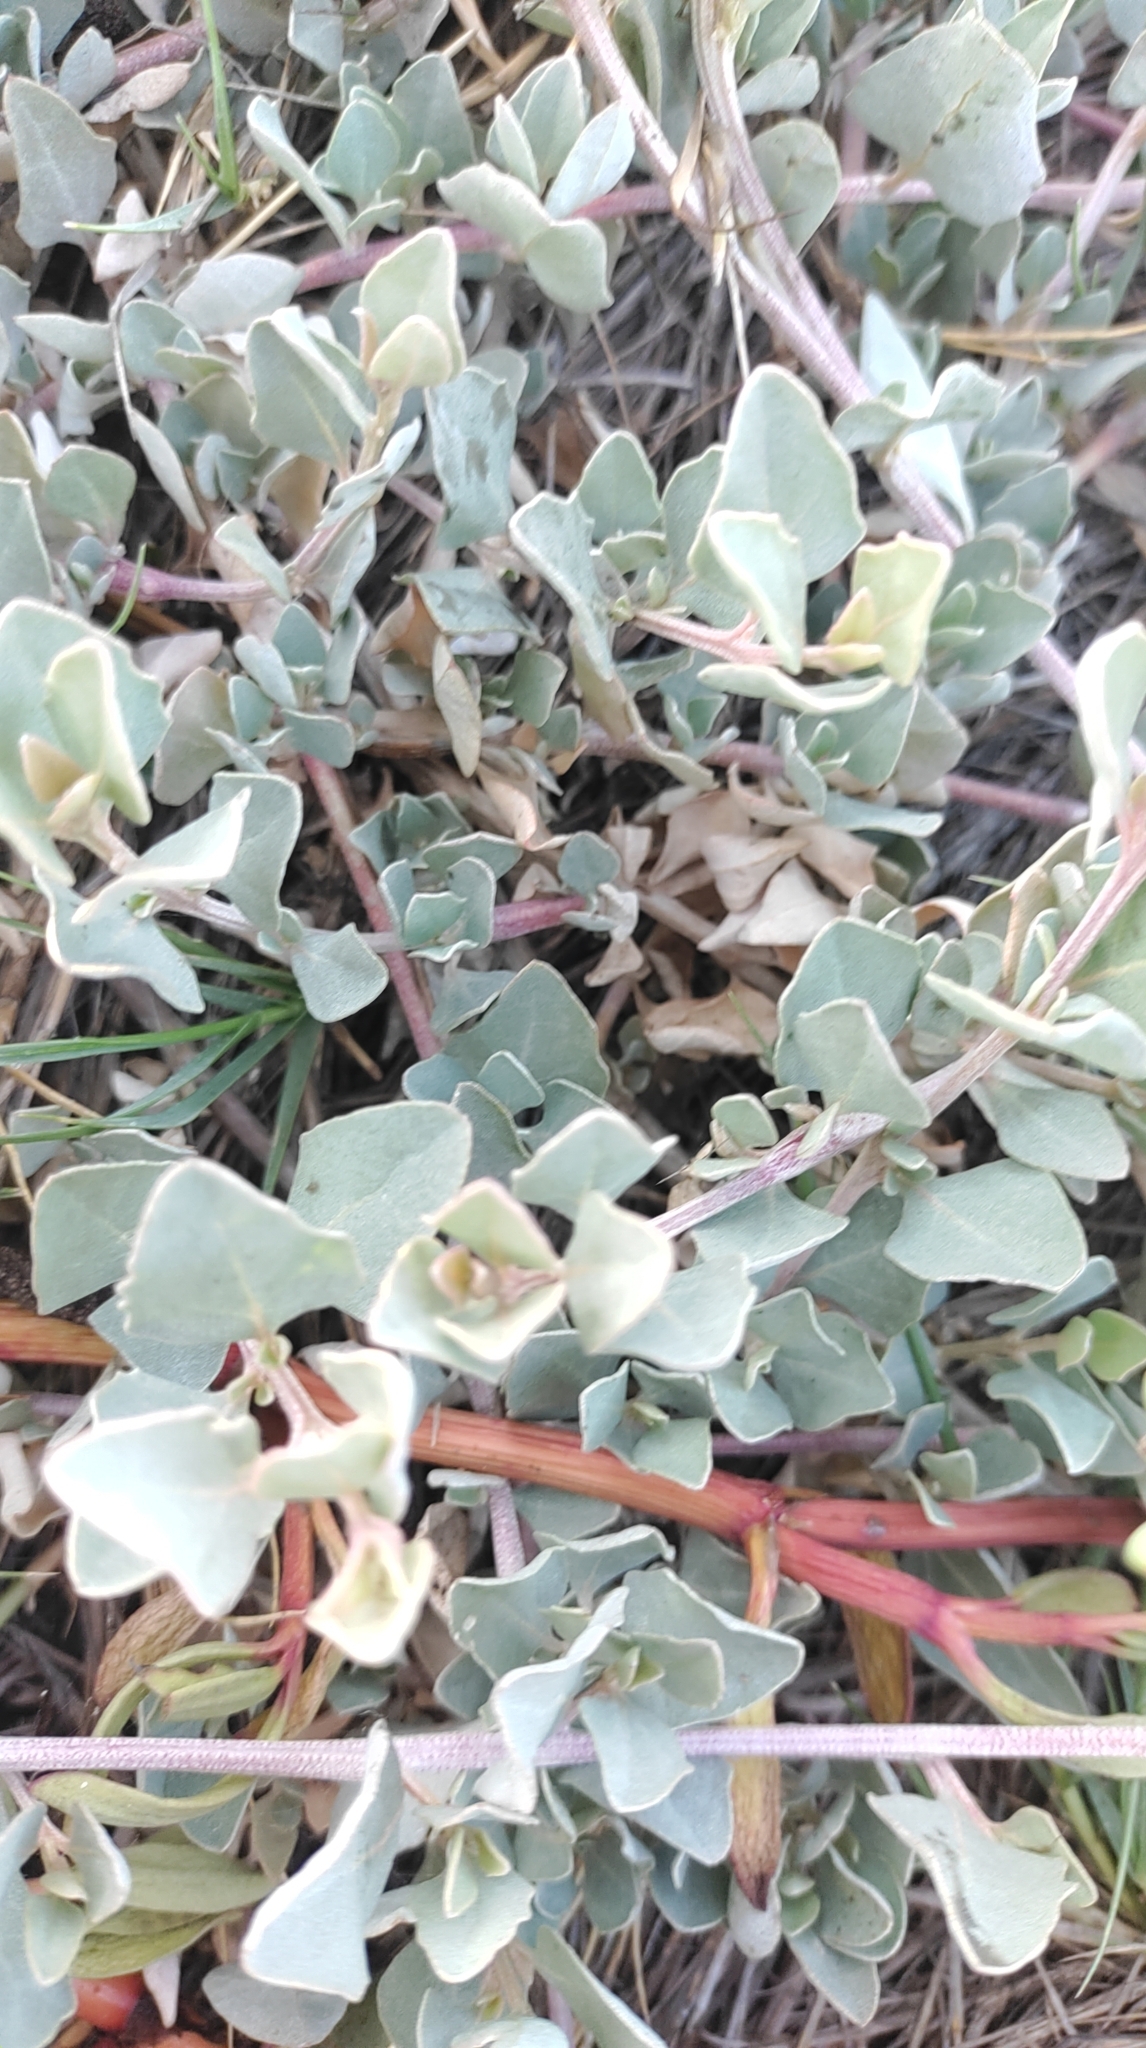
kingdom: Plantae
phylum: Tracheophyta
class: Magnoliopsida
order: Caryophyllales
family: Amaranthaceae
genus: Atriplex
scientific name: Atriplex maximowicziana
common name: Maximowicz's saltbush
